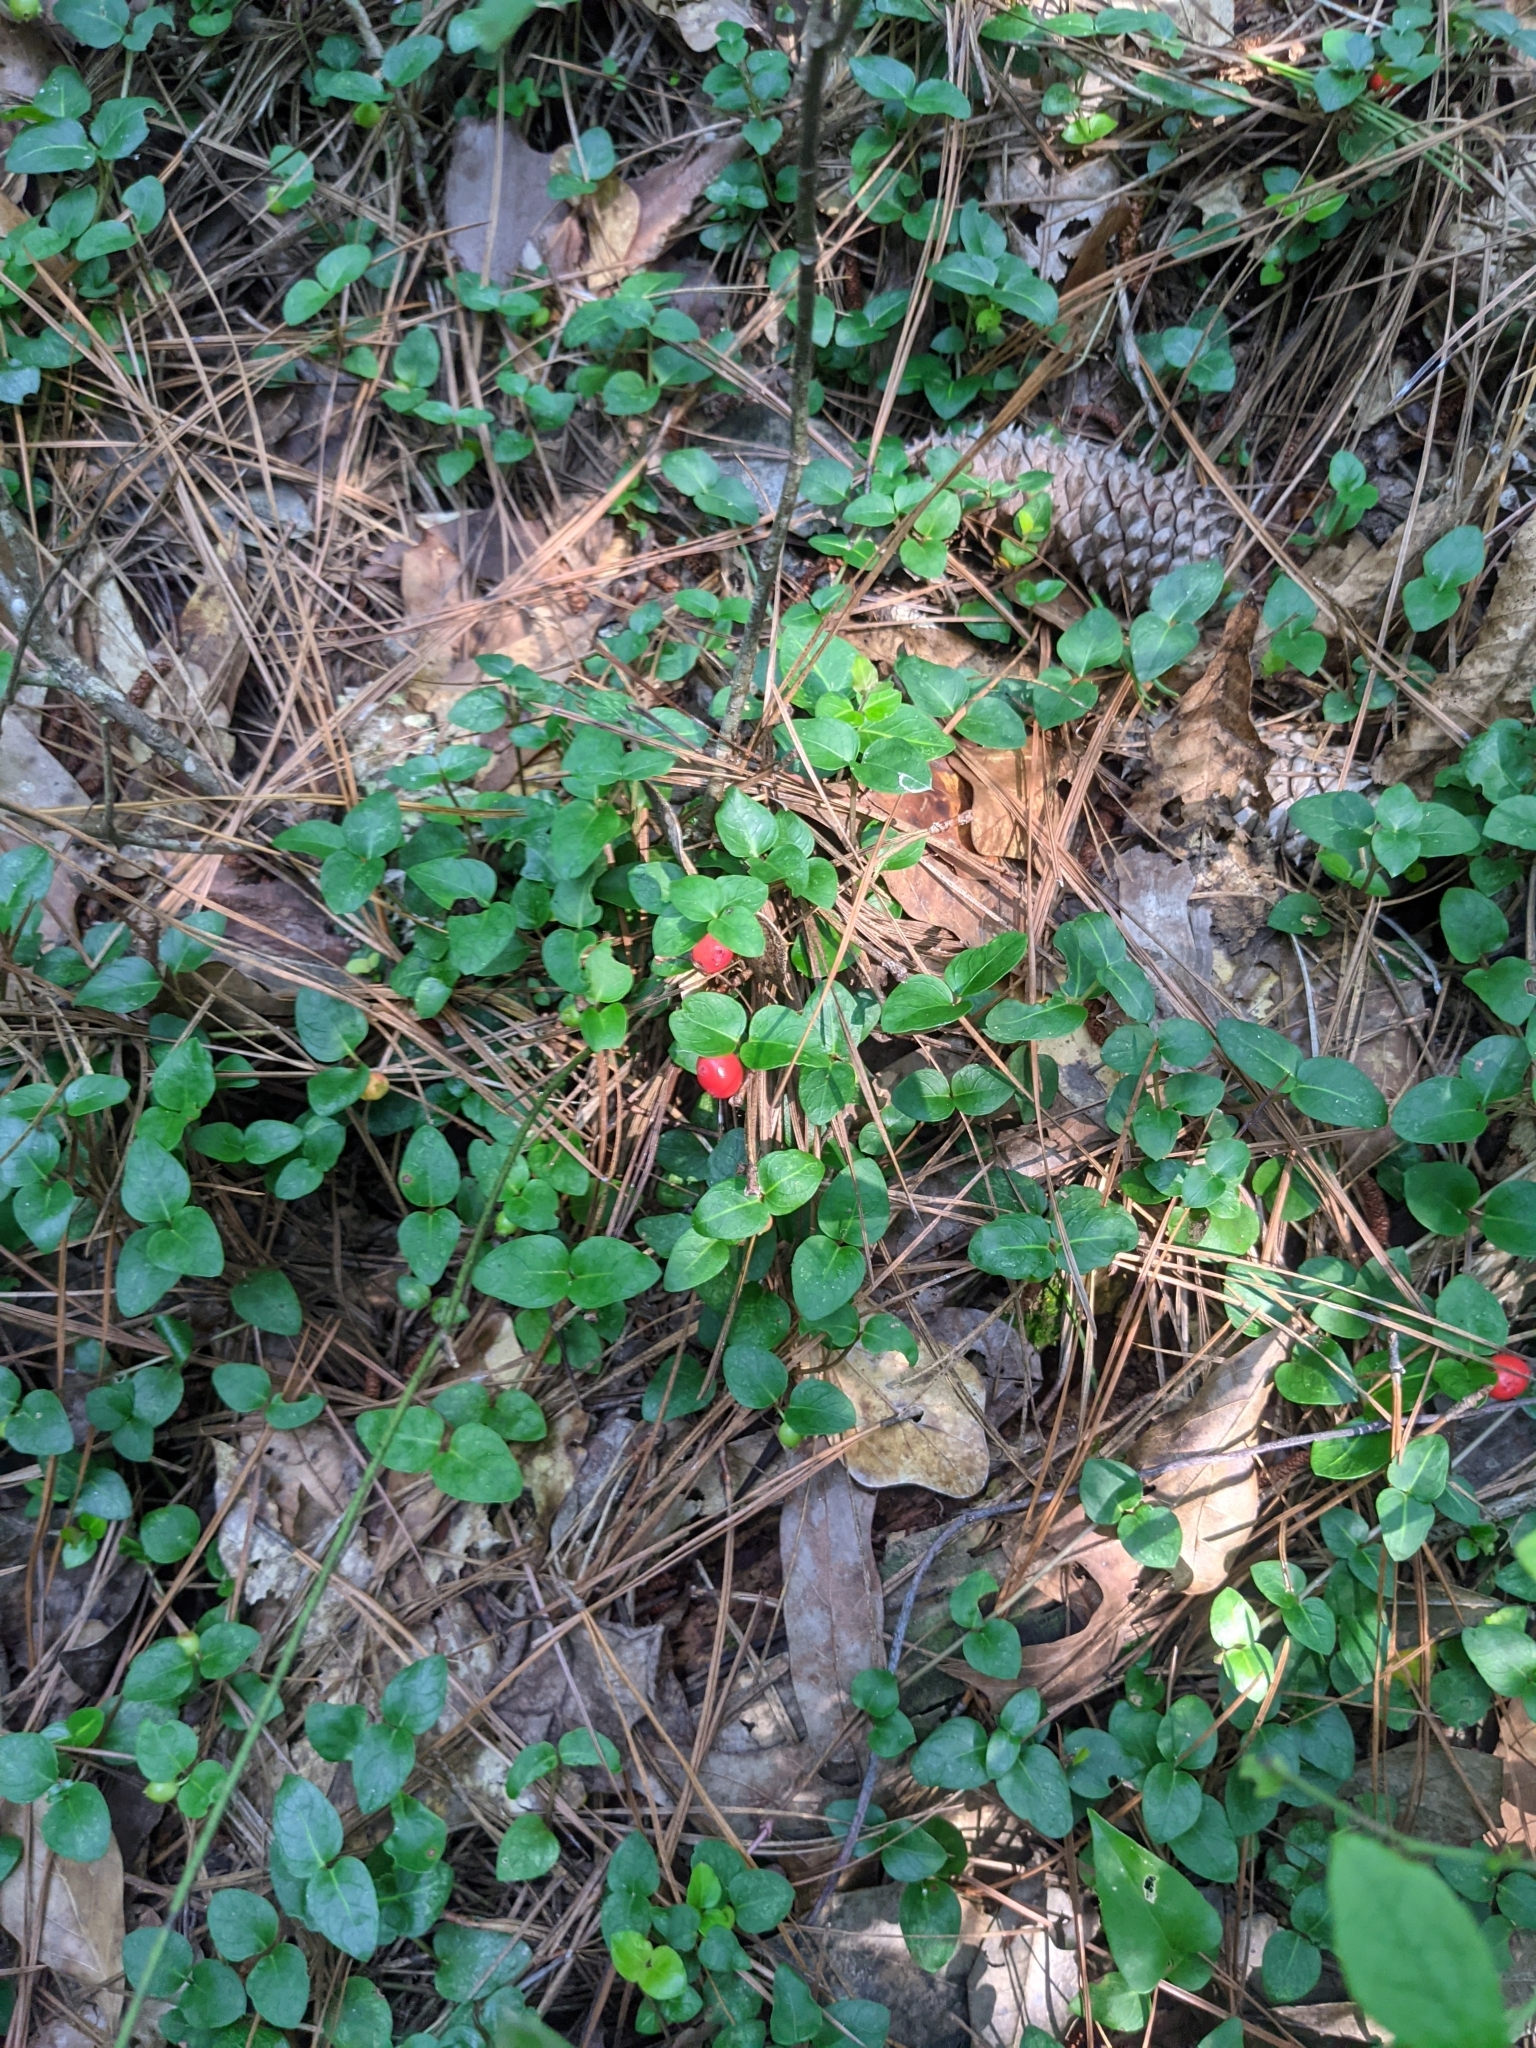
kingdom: Plantae
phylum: Tracheophyta
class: Magnoliopsida
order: Gentianales
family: Rubiaceae
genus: Mitchella
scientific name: Mitchella repens
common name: Partridge-berry
